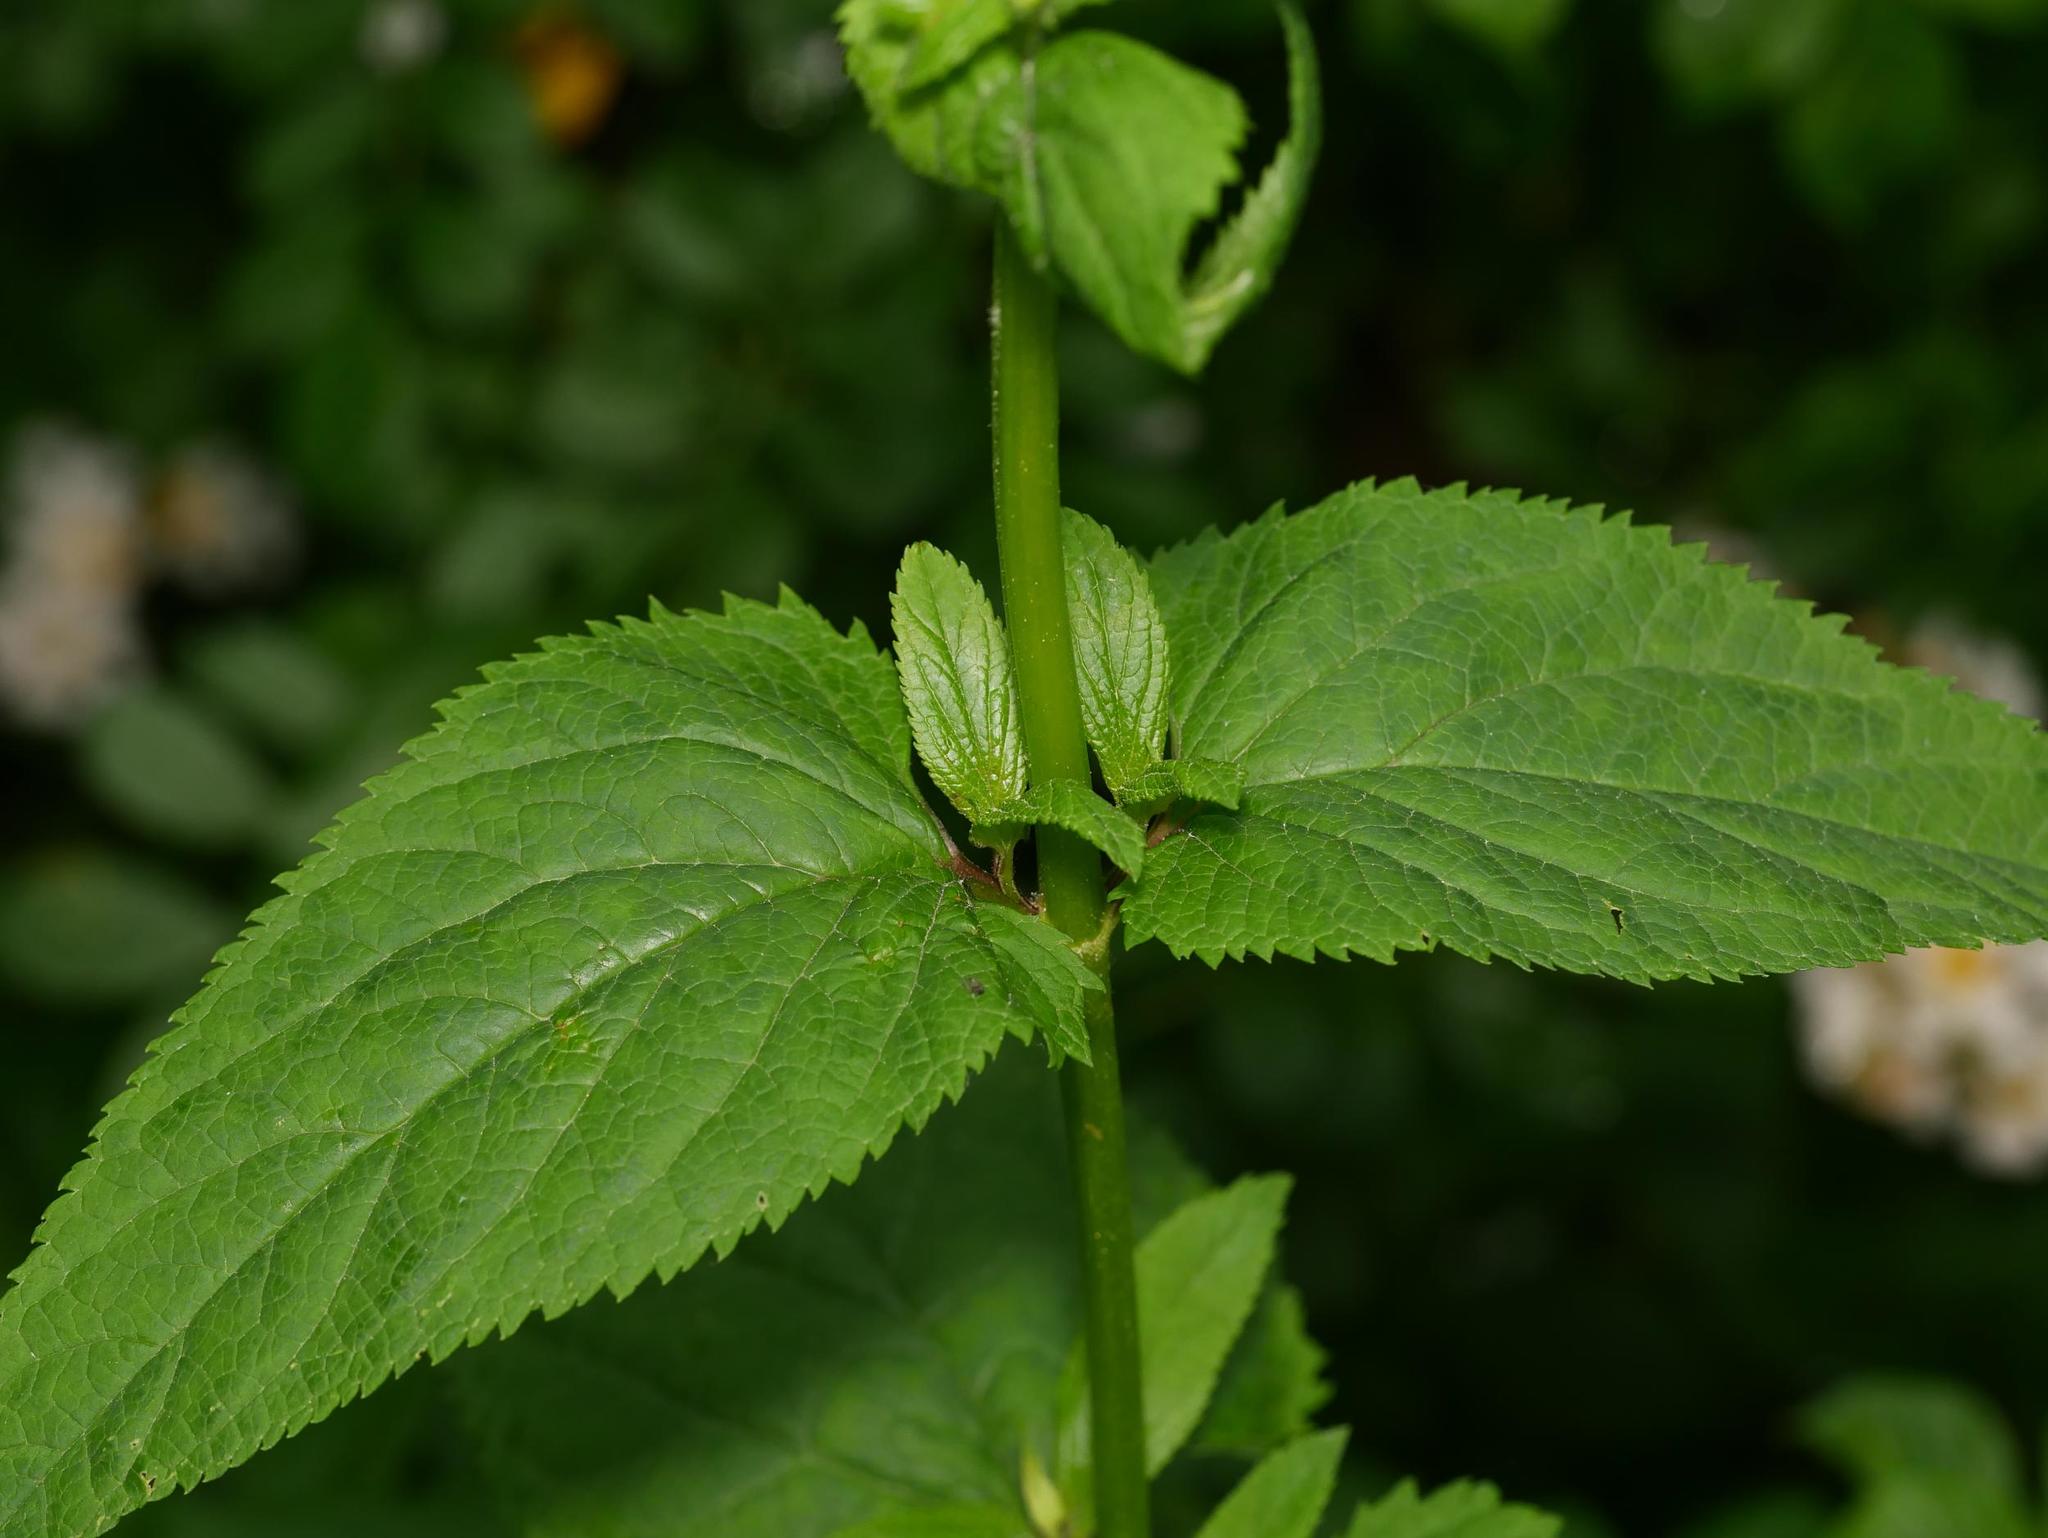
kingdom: Plantae
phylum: Tracheophyta
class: Magnoliopsida
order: Lamiales
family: Scrophulariaceae
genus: Scrophularia
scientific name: Scrophularia nodosa
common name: Common figwort
